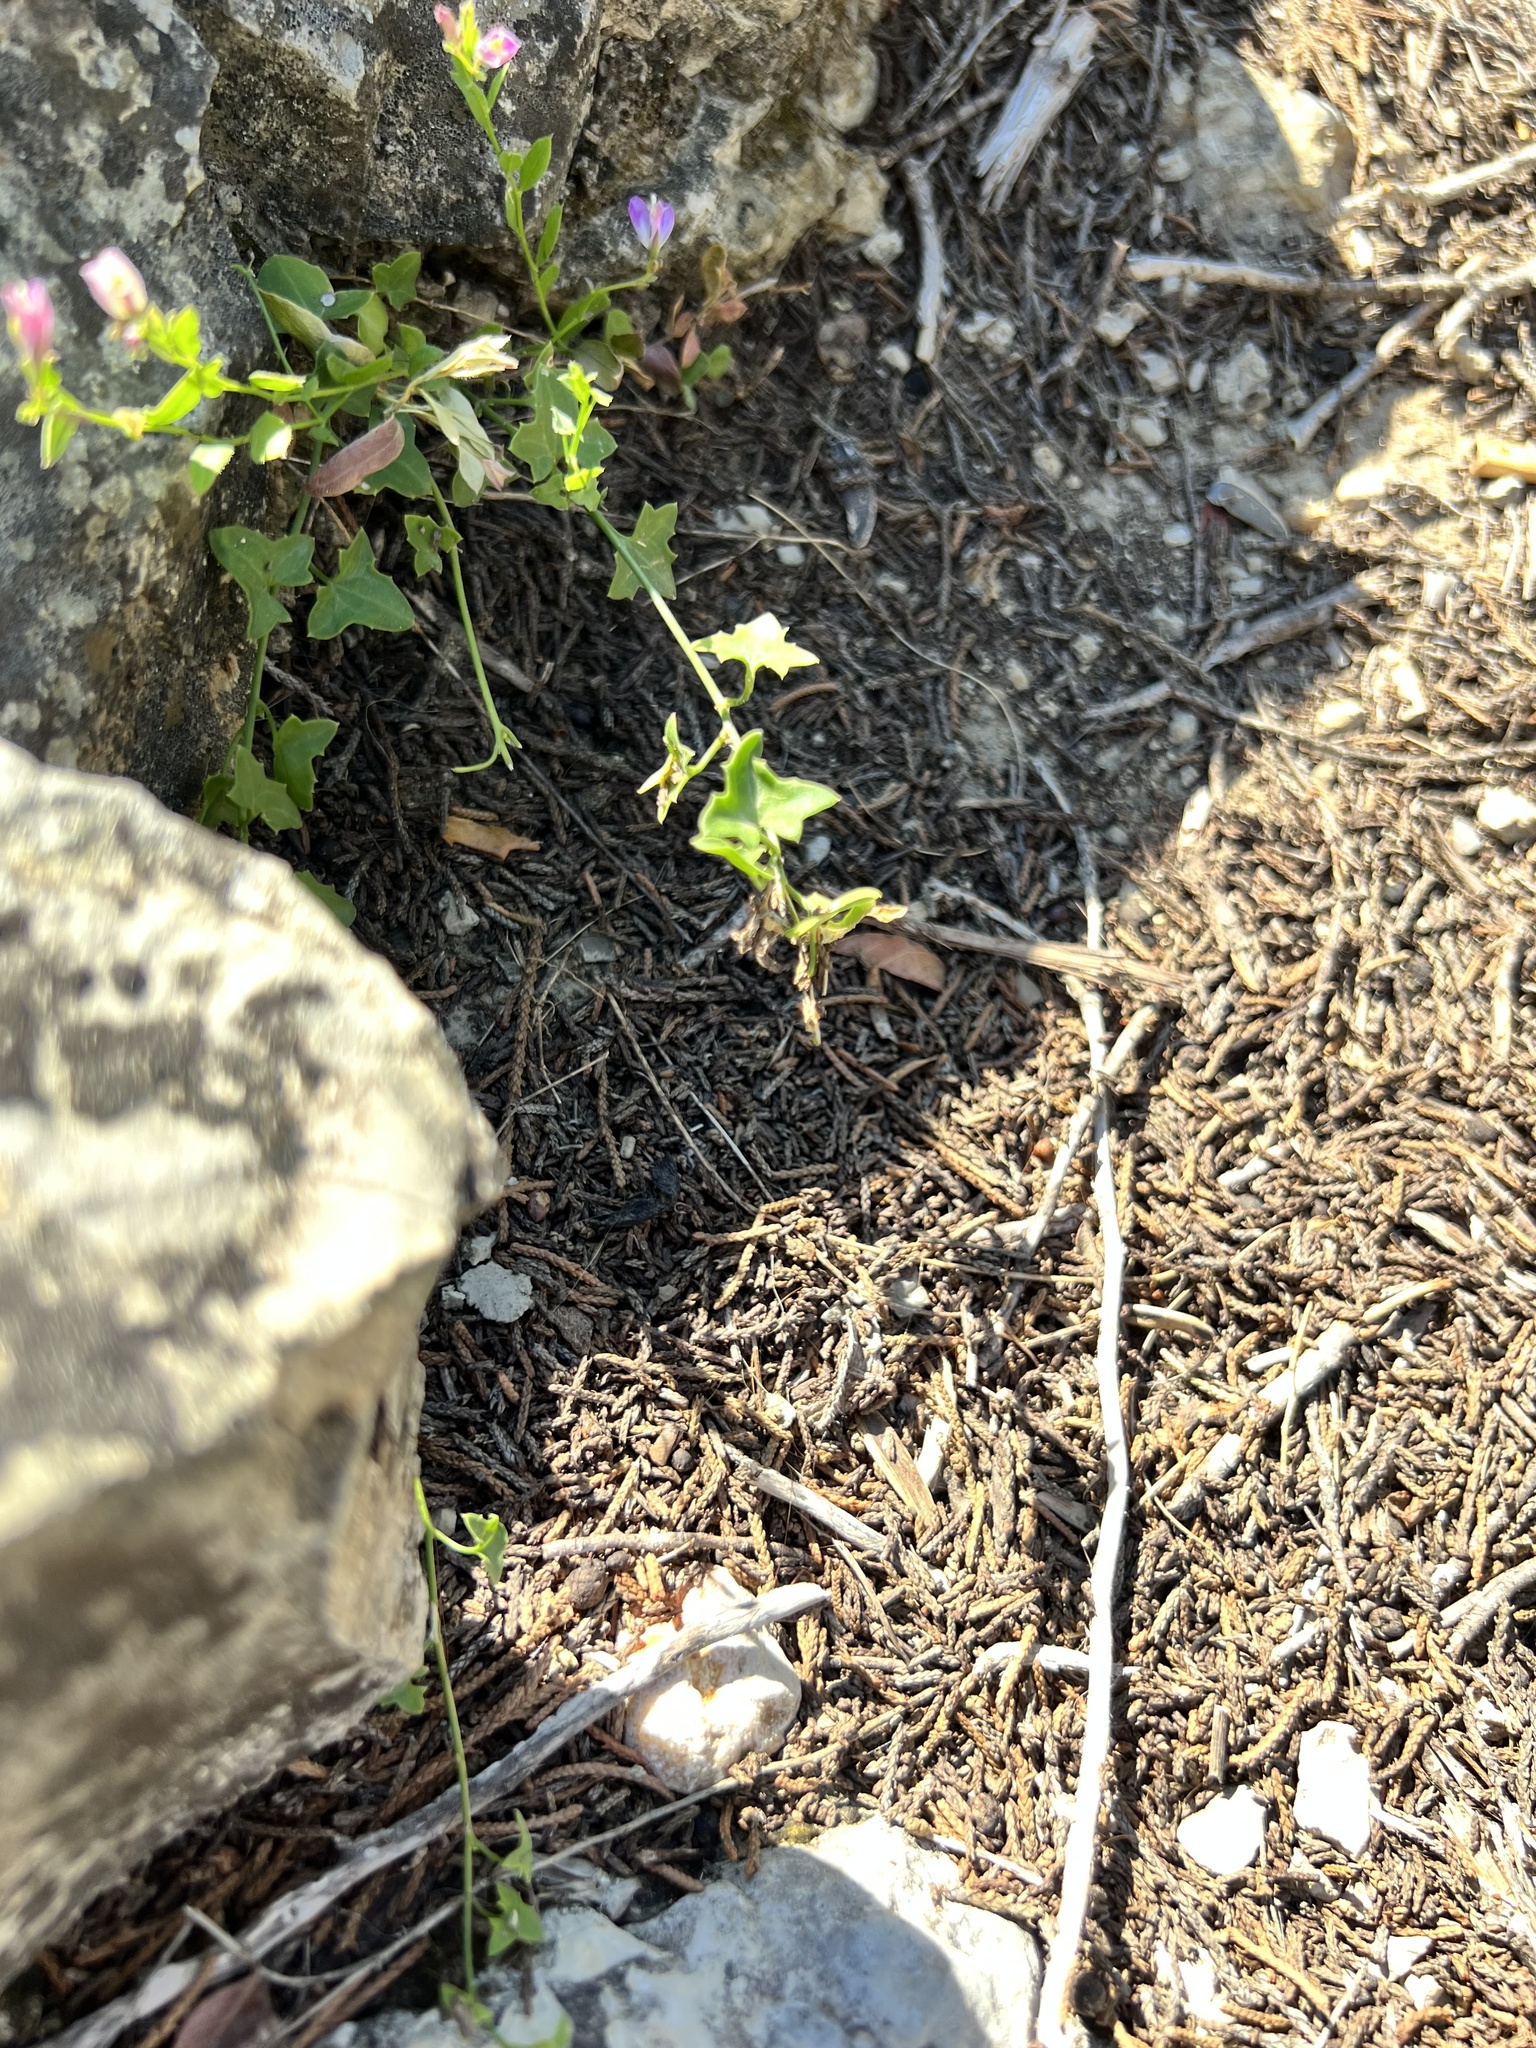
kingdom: Plantae
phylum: Tracheophyta
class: Magnoliopsida
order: Lamiales
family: Plantaginaceae
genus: Maurandella
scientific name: Maurandella antirrhiniflora
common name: Violet twining-snapdragon
